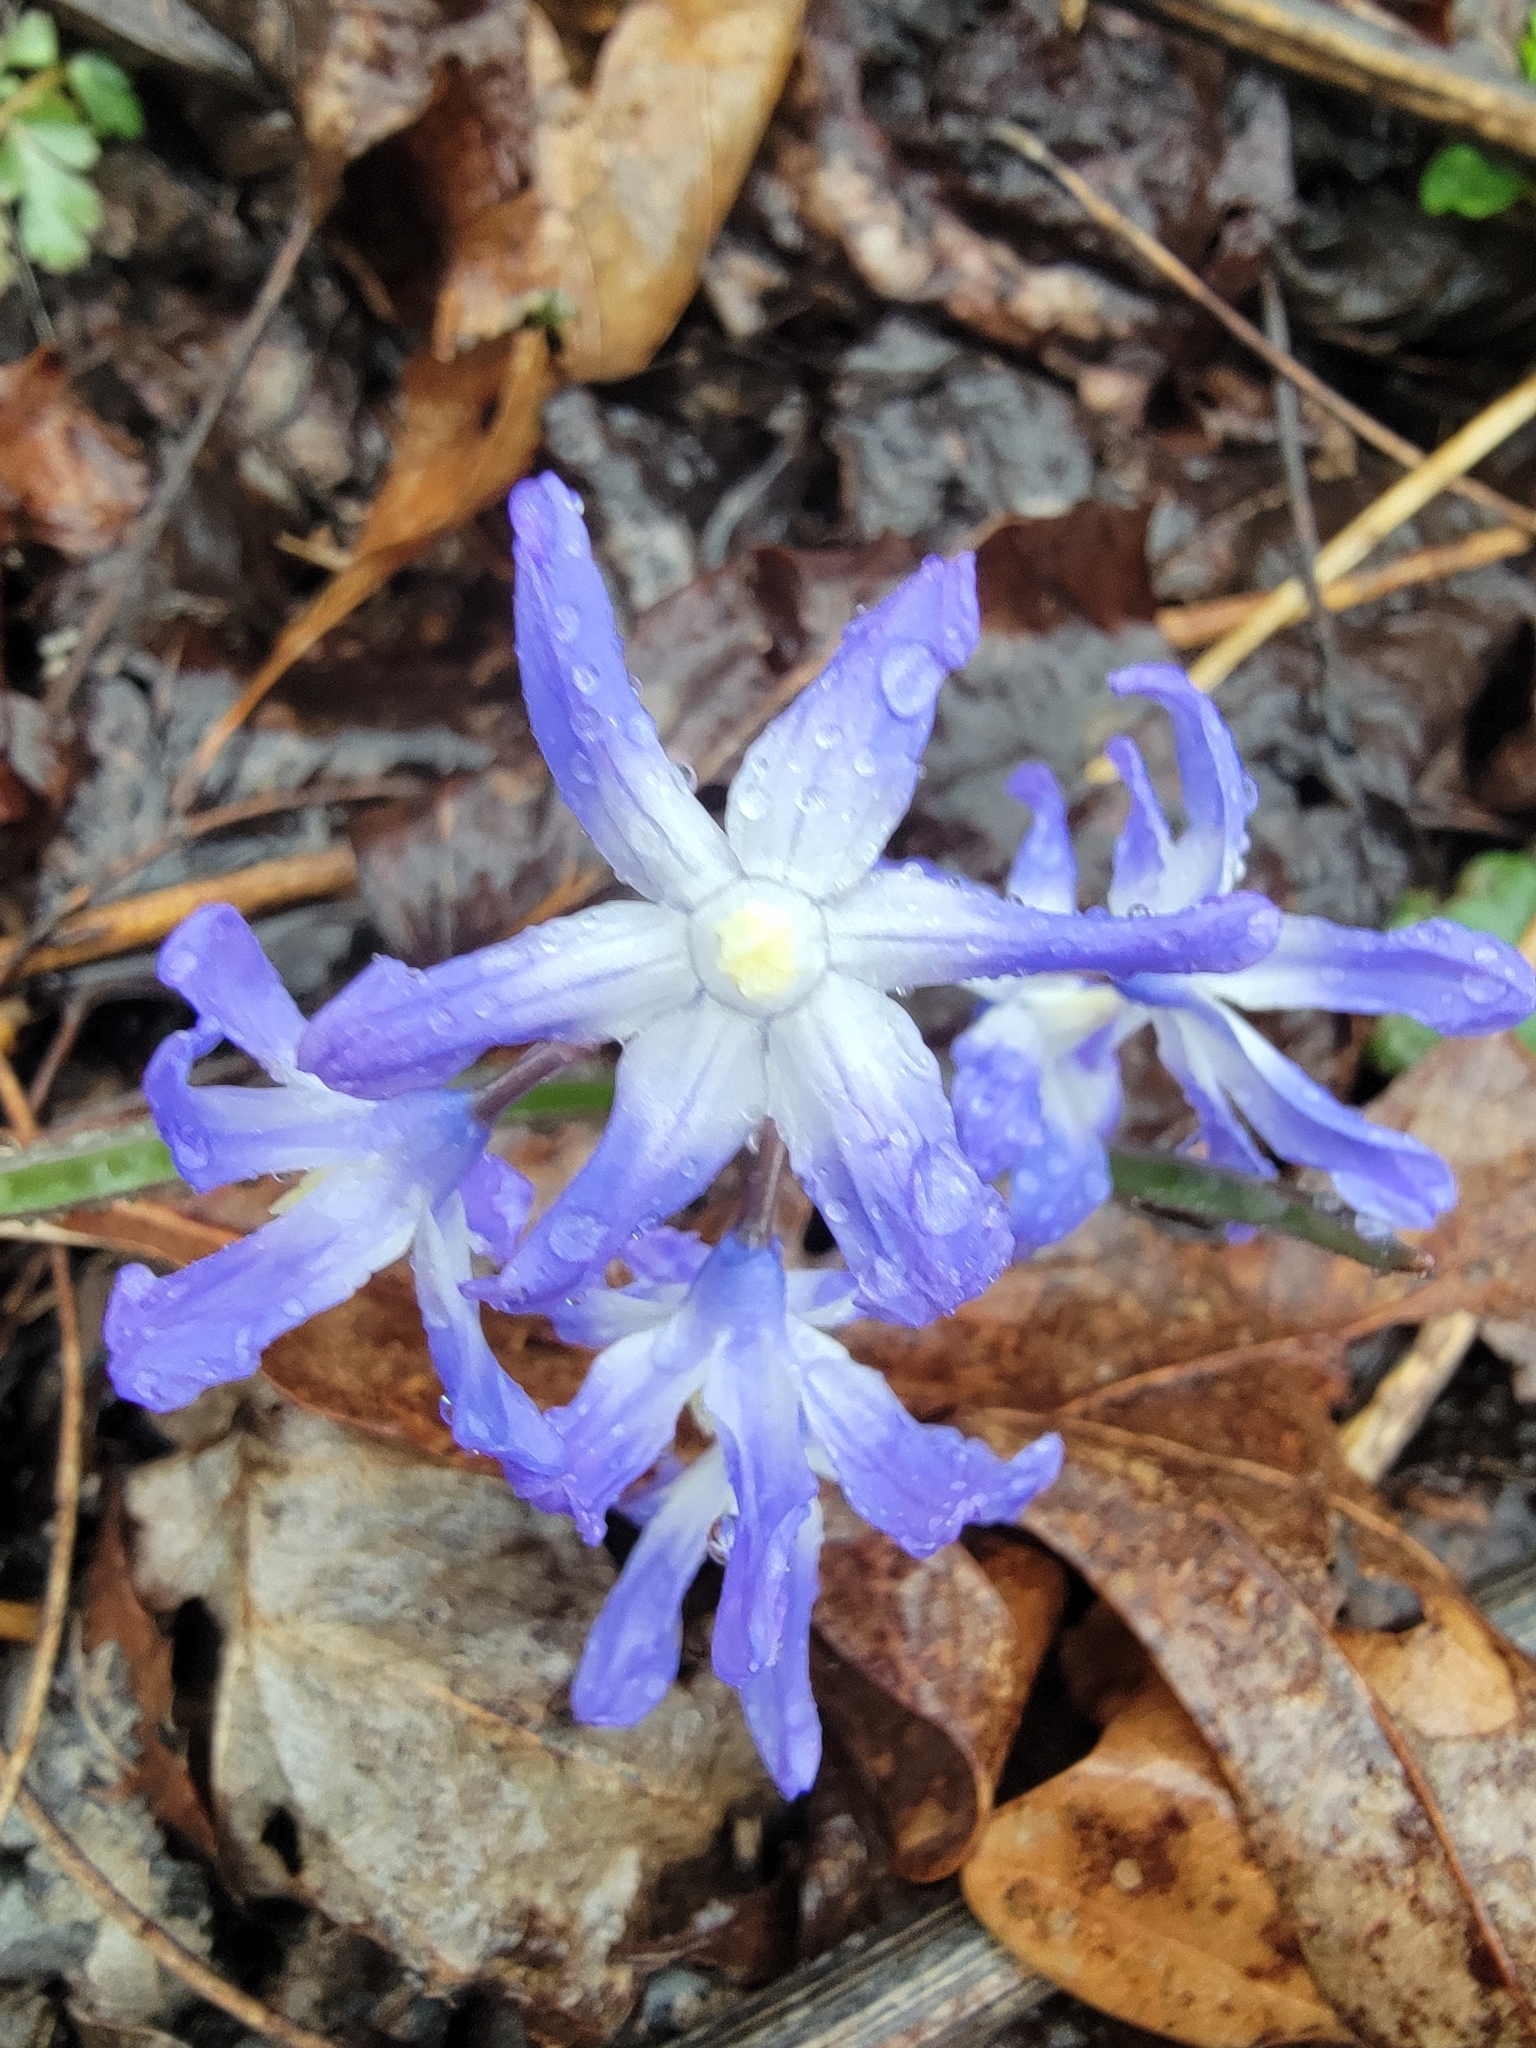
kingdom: Plantae
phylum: Tracheophyta
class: Liliopsida
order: Asparagales
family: Asparagaceae
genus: Scilla
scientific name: Scilla forbesii
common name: Glory-of-the-snow
